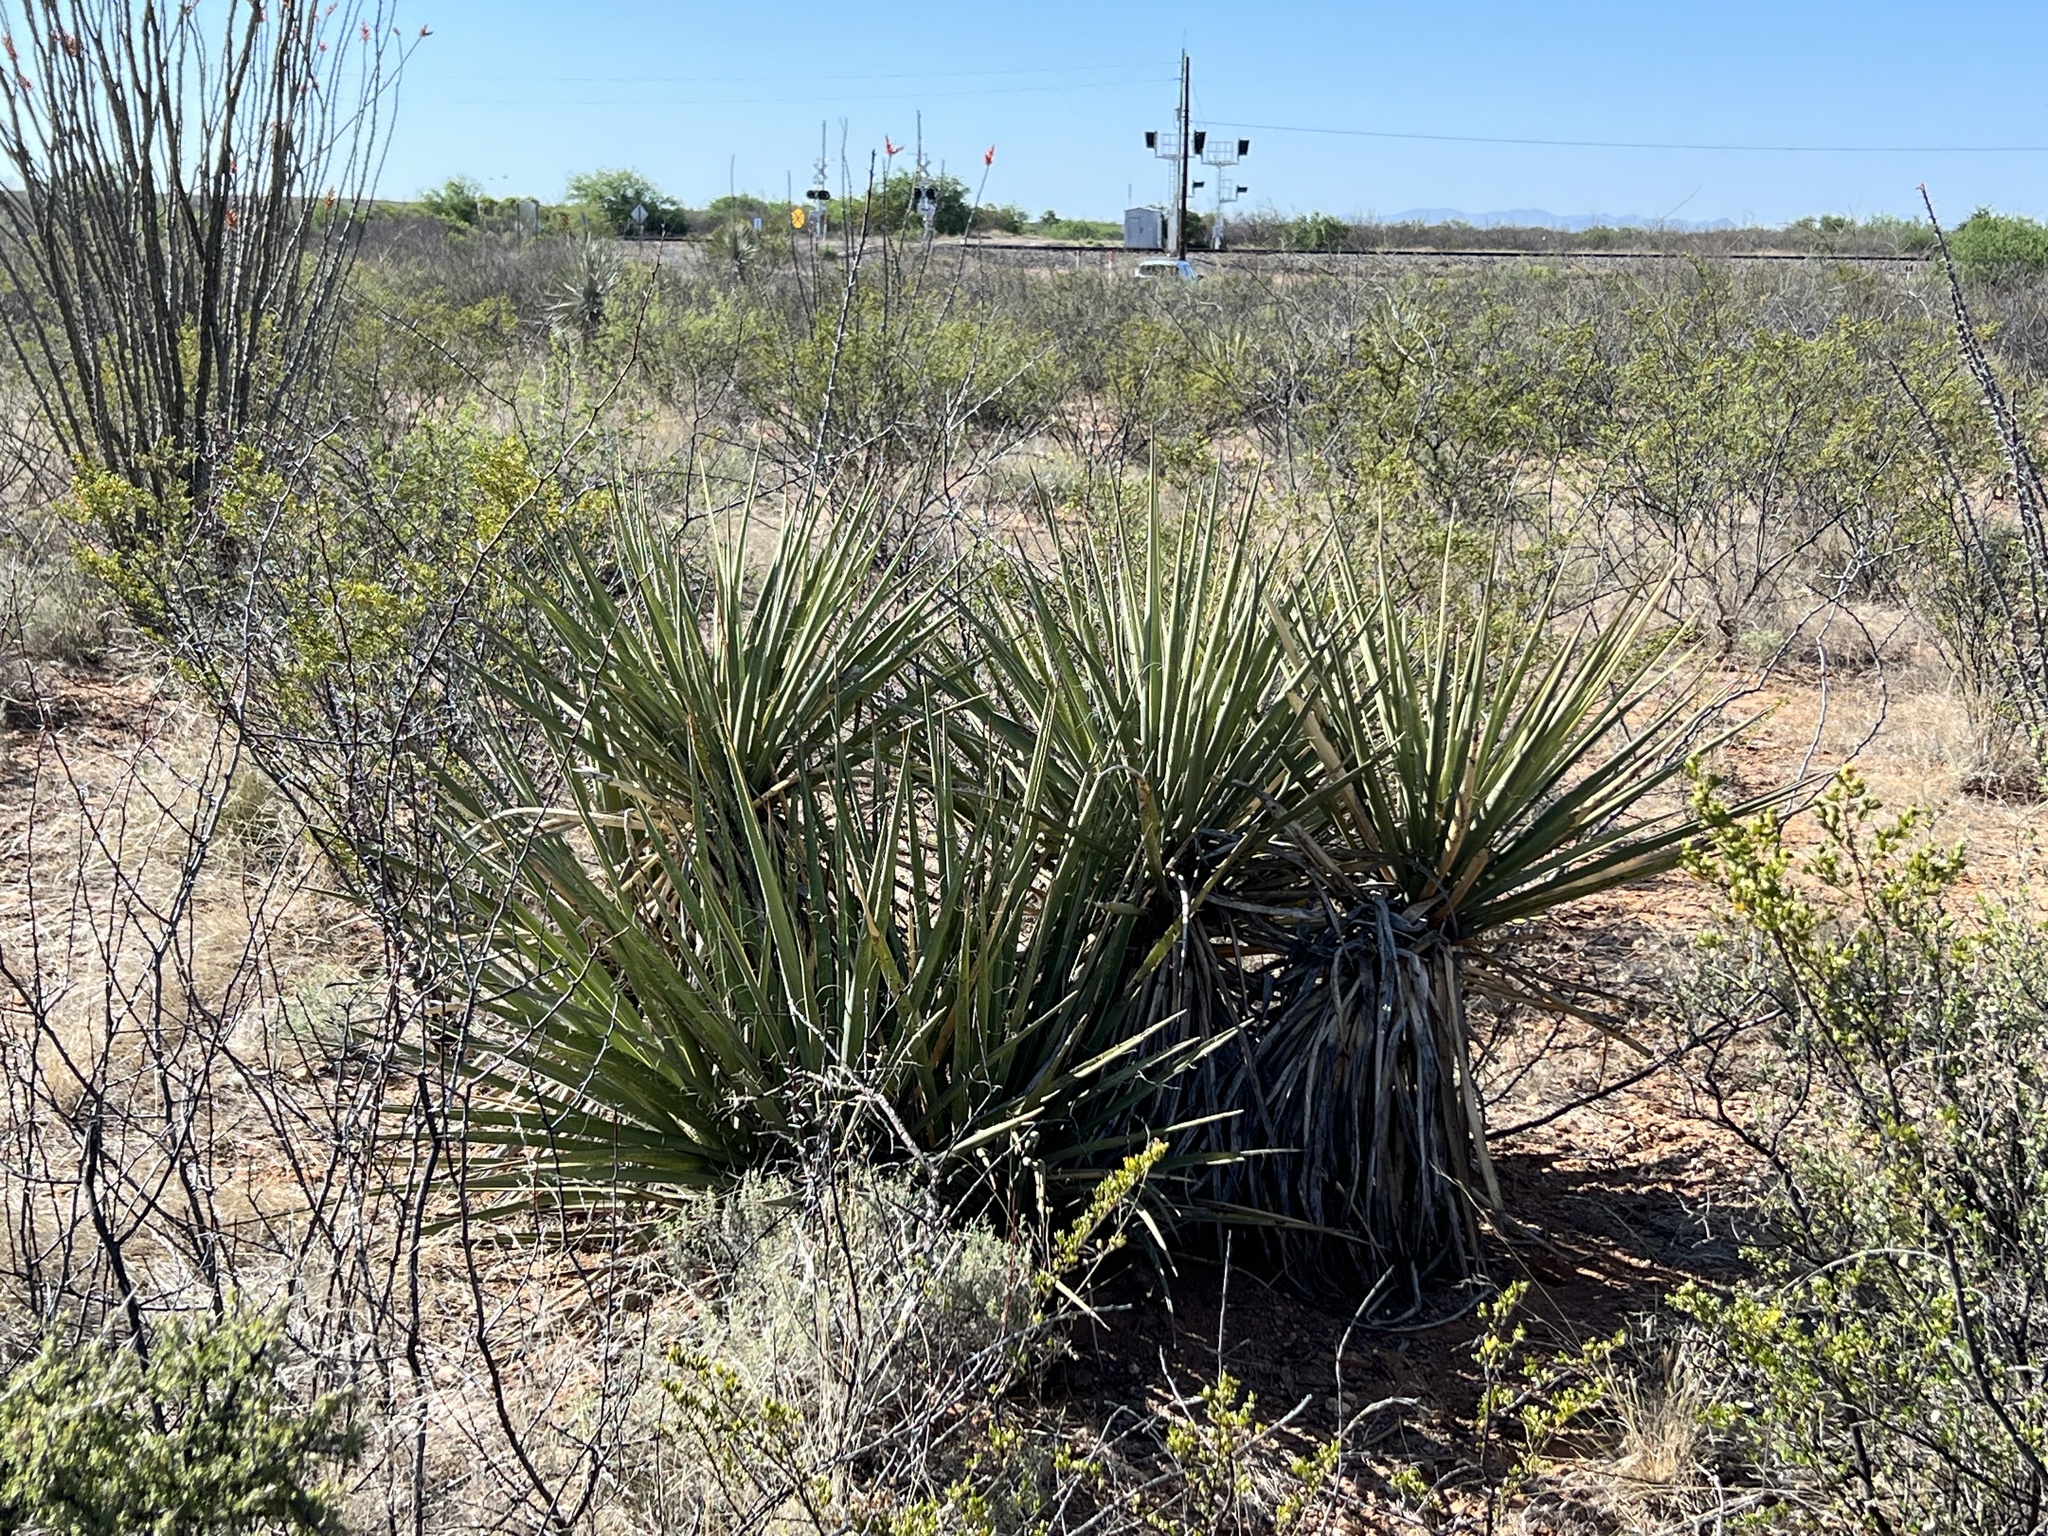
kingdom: Plantae
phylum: Tracheophyta
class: Liliopsida
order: Asparagales
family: Asparagaceae
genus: Yucca
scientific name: Yucca baccata
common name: Banana yucca
